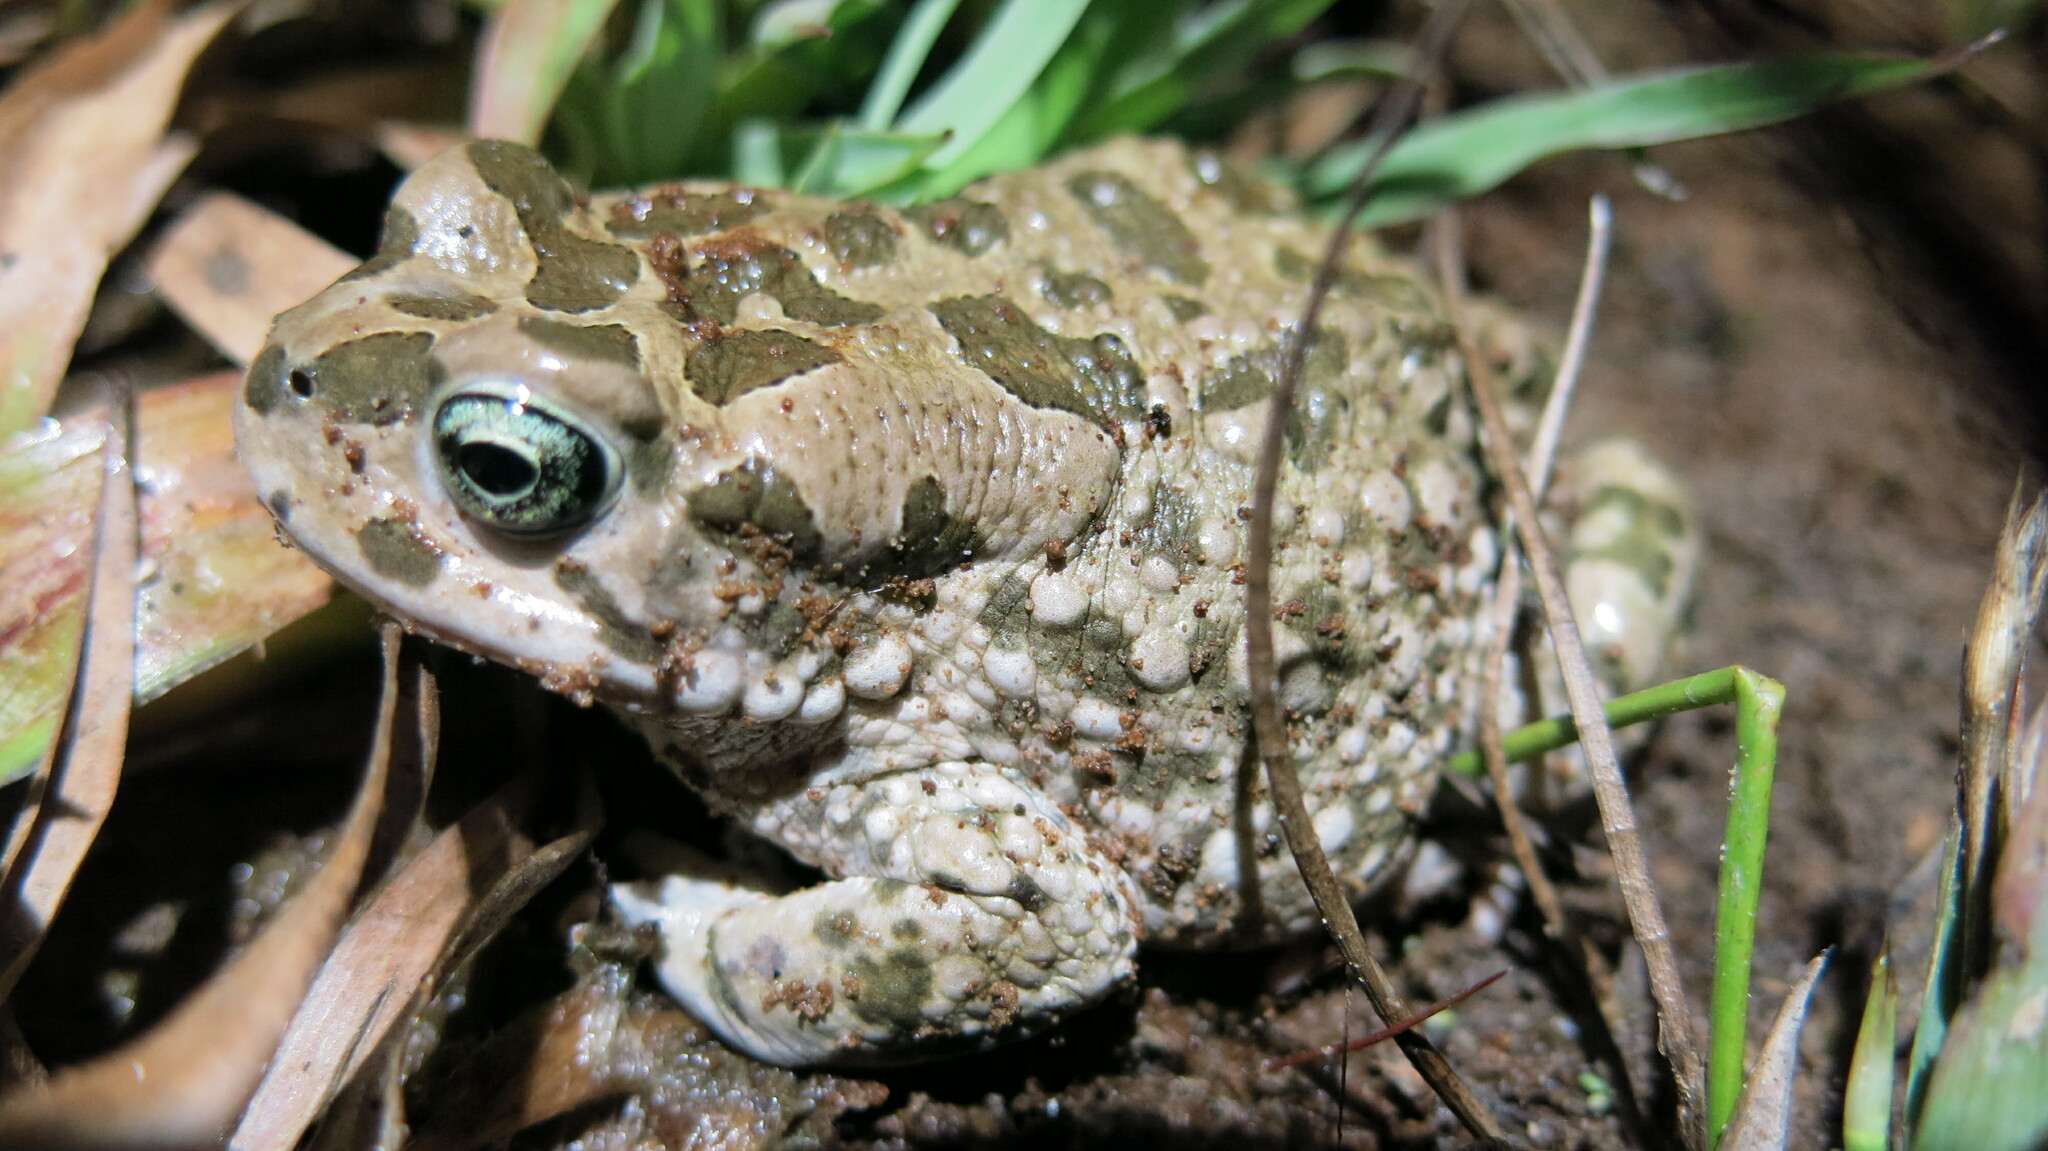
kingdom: Animalia
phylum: Chordata
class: Amphibia
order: Anura
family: Bufonidae
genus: Vandijkophrynus
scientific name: Vandijkophrynus gariepensis
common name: Gariep toad
